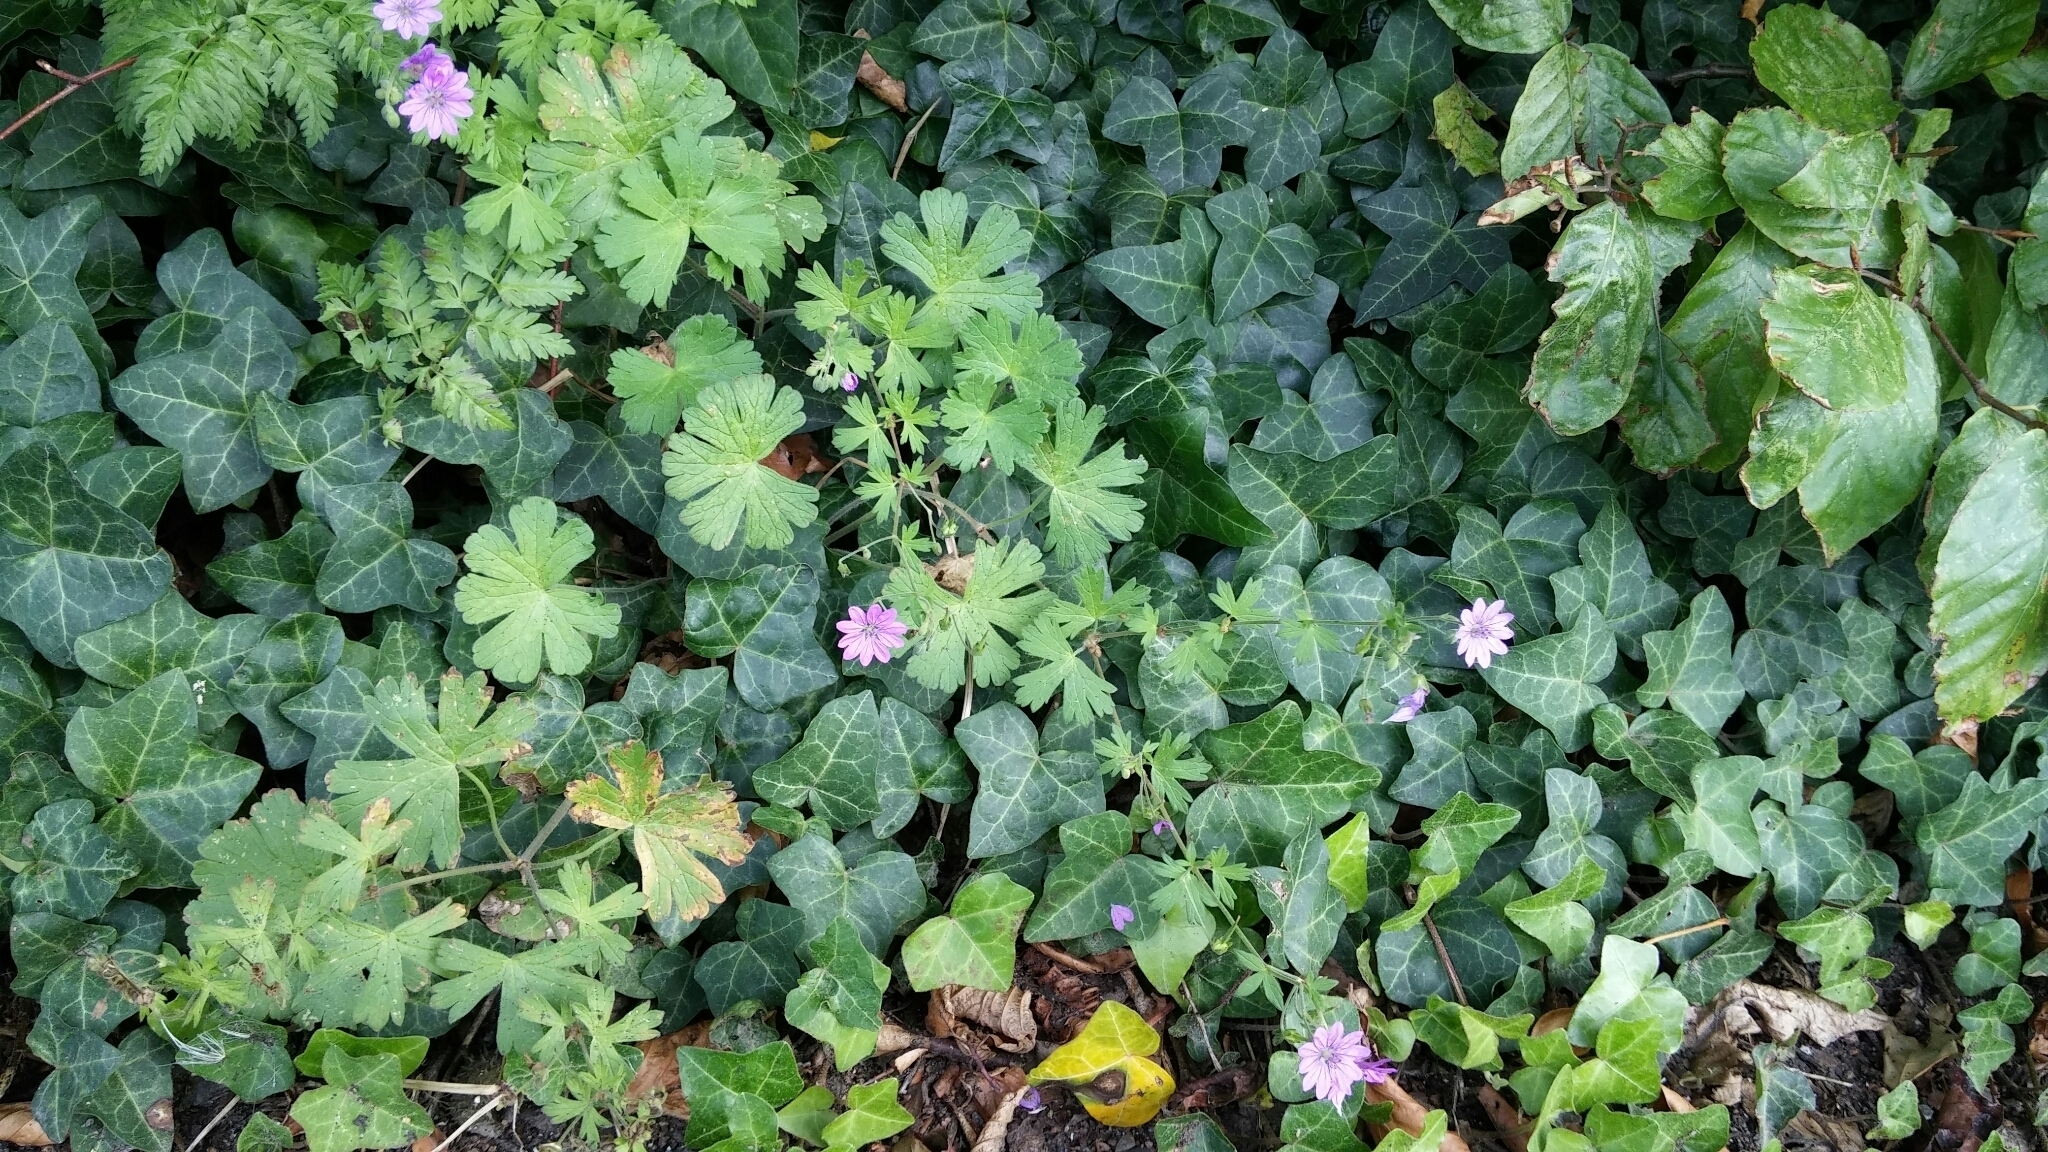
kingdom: Plantae
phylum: Tracheophyta
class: Magnoliopsida
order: Geraniales
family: Geraniaceae
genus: Geranium
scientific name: Geranium pyrenaicum
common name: Hedgerow crane's-bill
